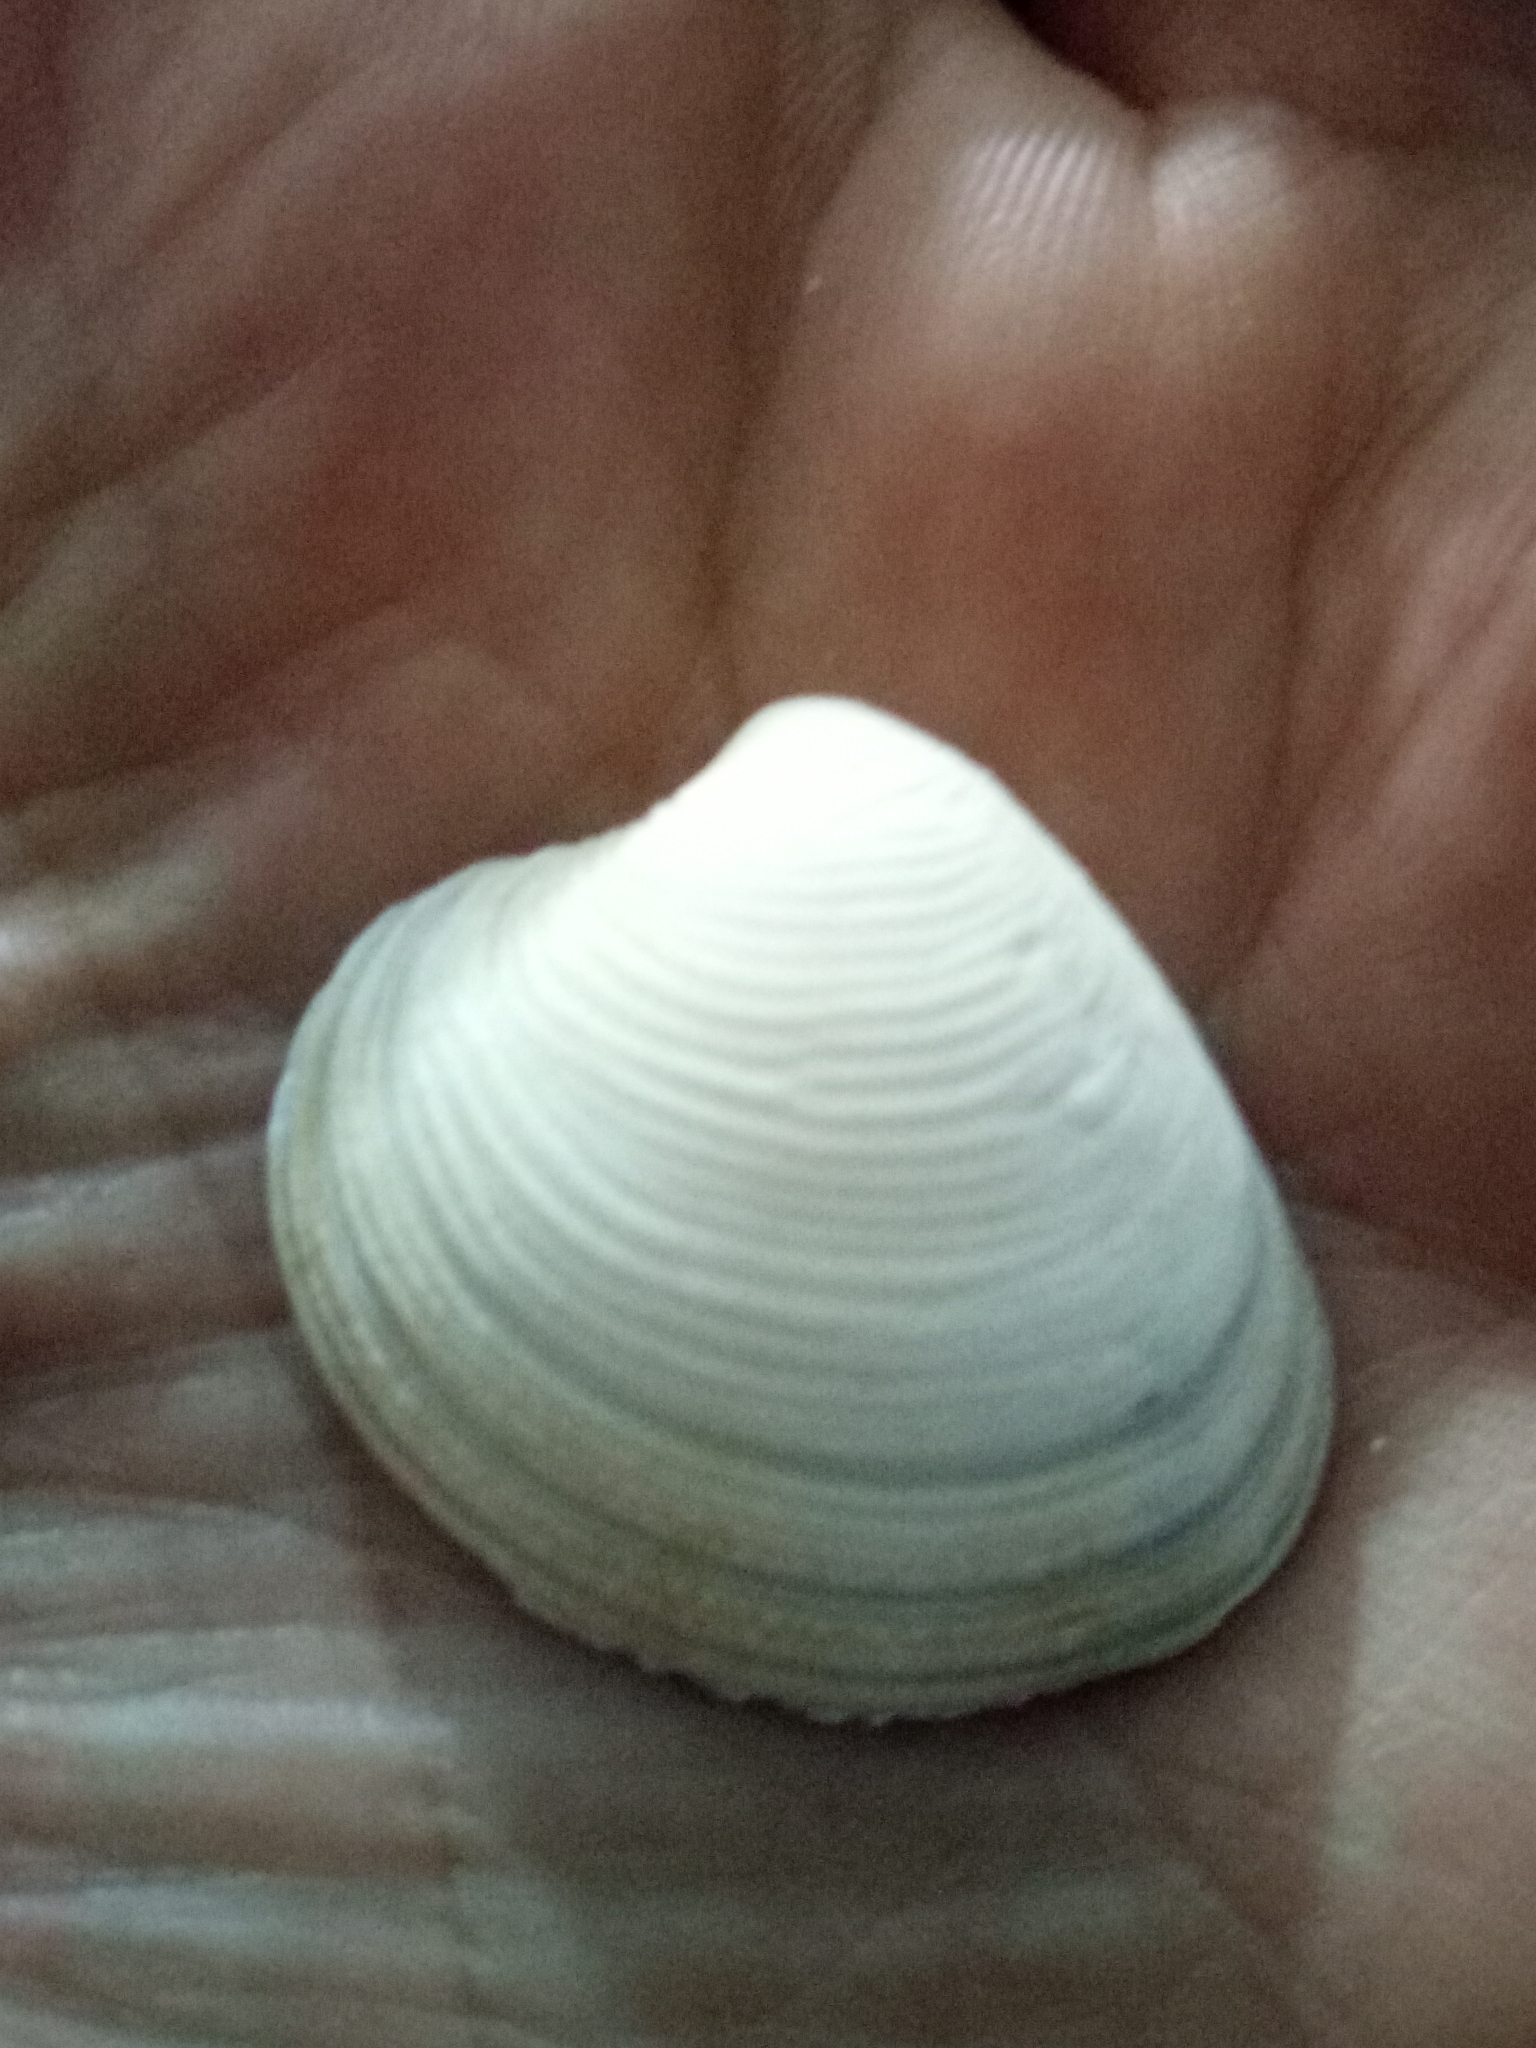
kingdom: Animalia
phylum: Mollusca
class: Bivalvia
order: Venerida
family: Veneridae
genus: Chamelea
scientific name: Chamelea gallina
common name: Chicken venus
